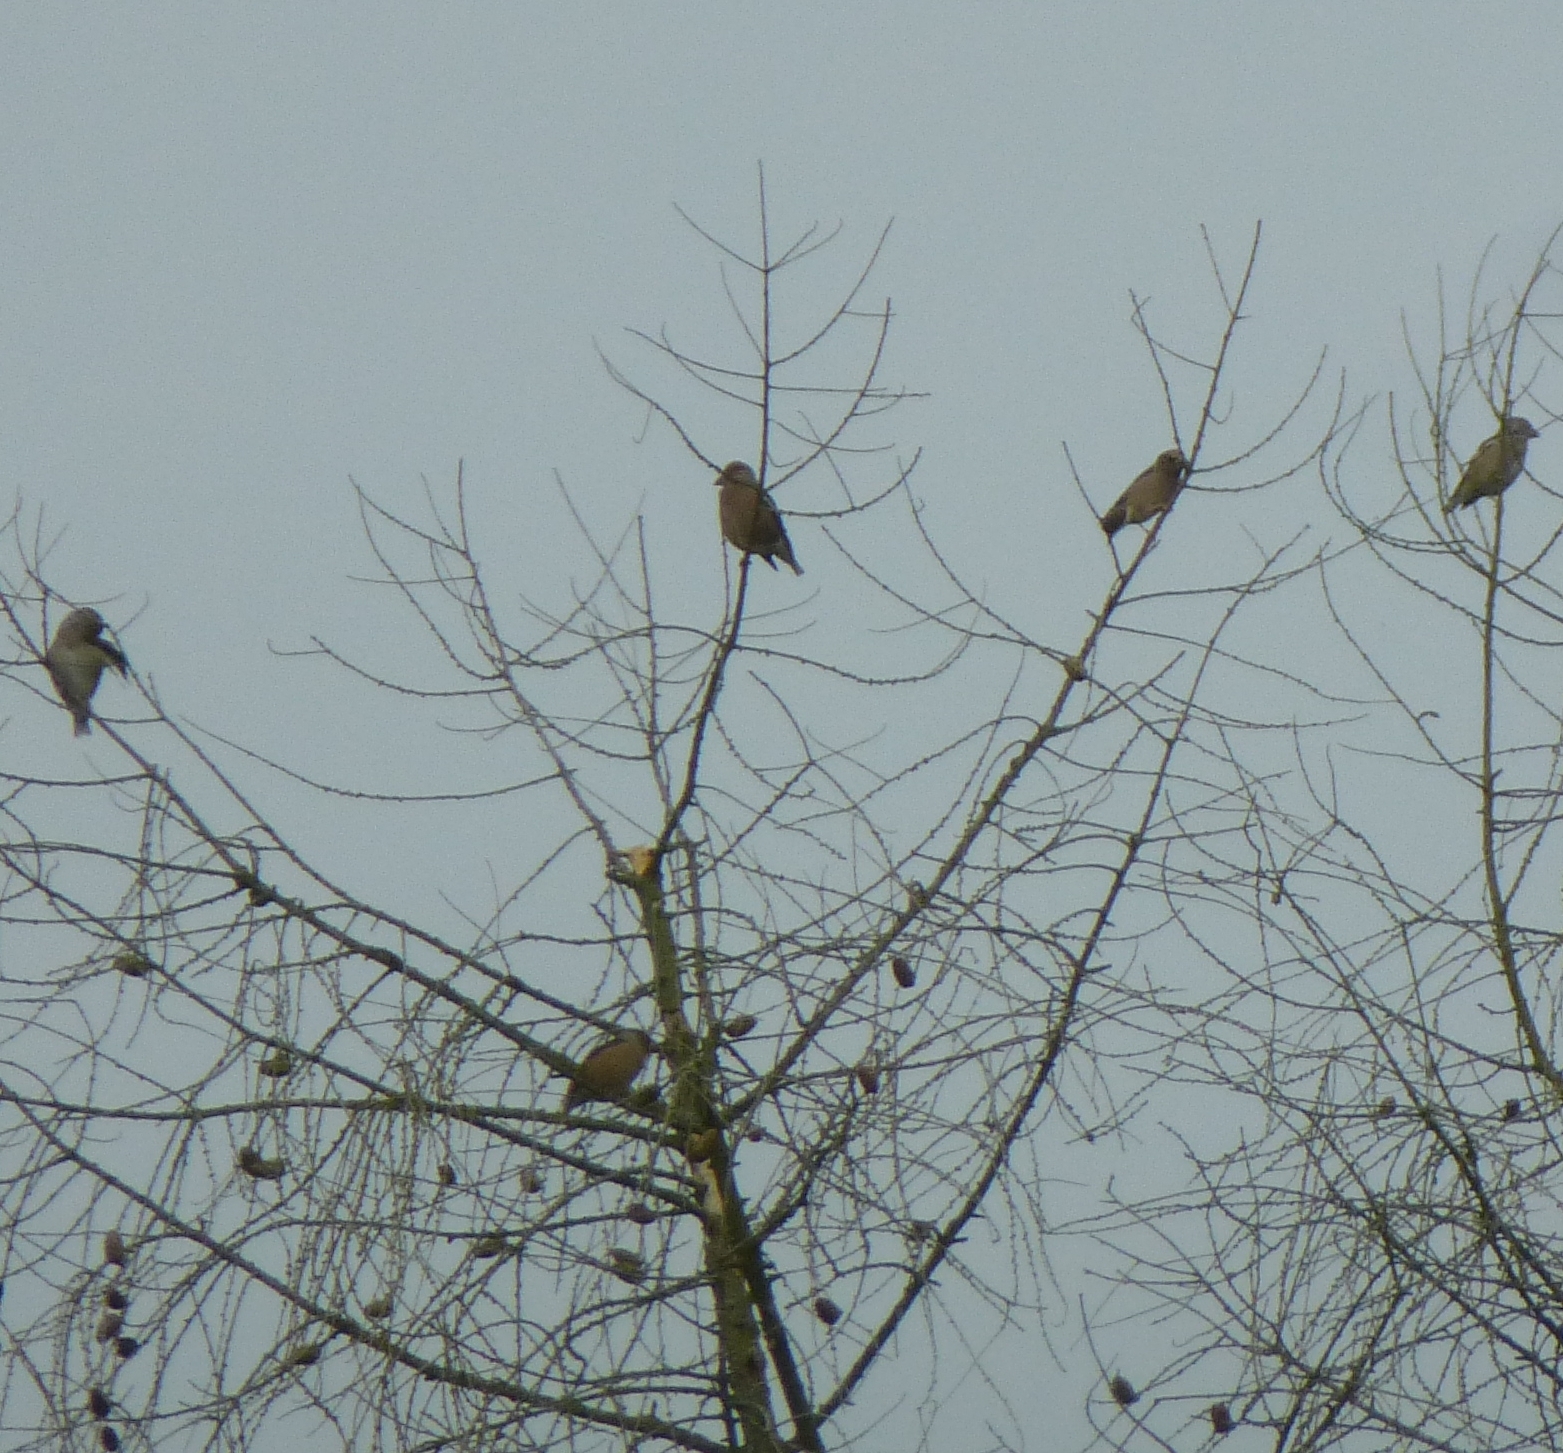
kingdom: Animalia
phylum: Chordata
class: Aves
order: Passeriformes
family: Fringillidae
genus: Coccothraustes
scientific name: Coccothraustes coccothraustes
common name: Hawfinch
